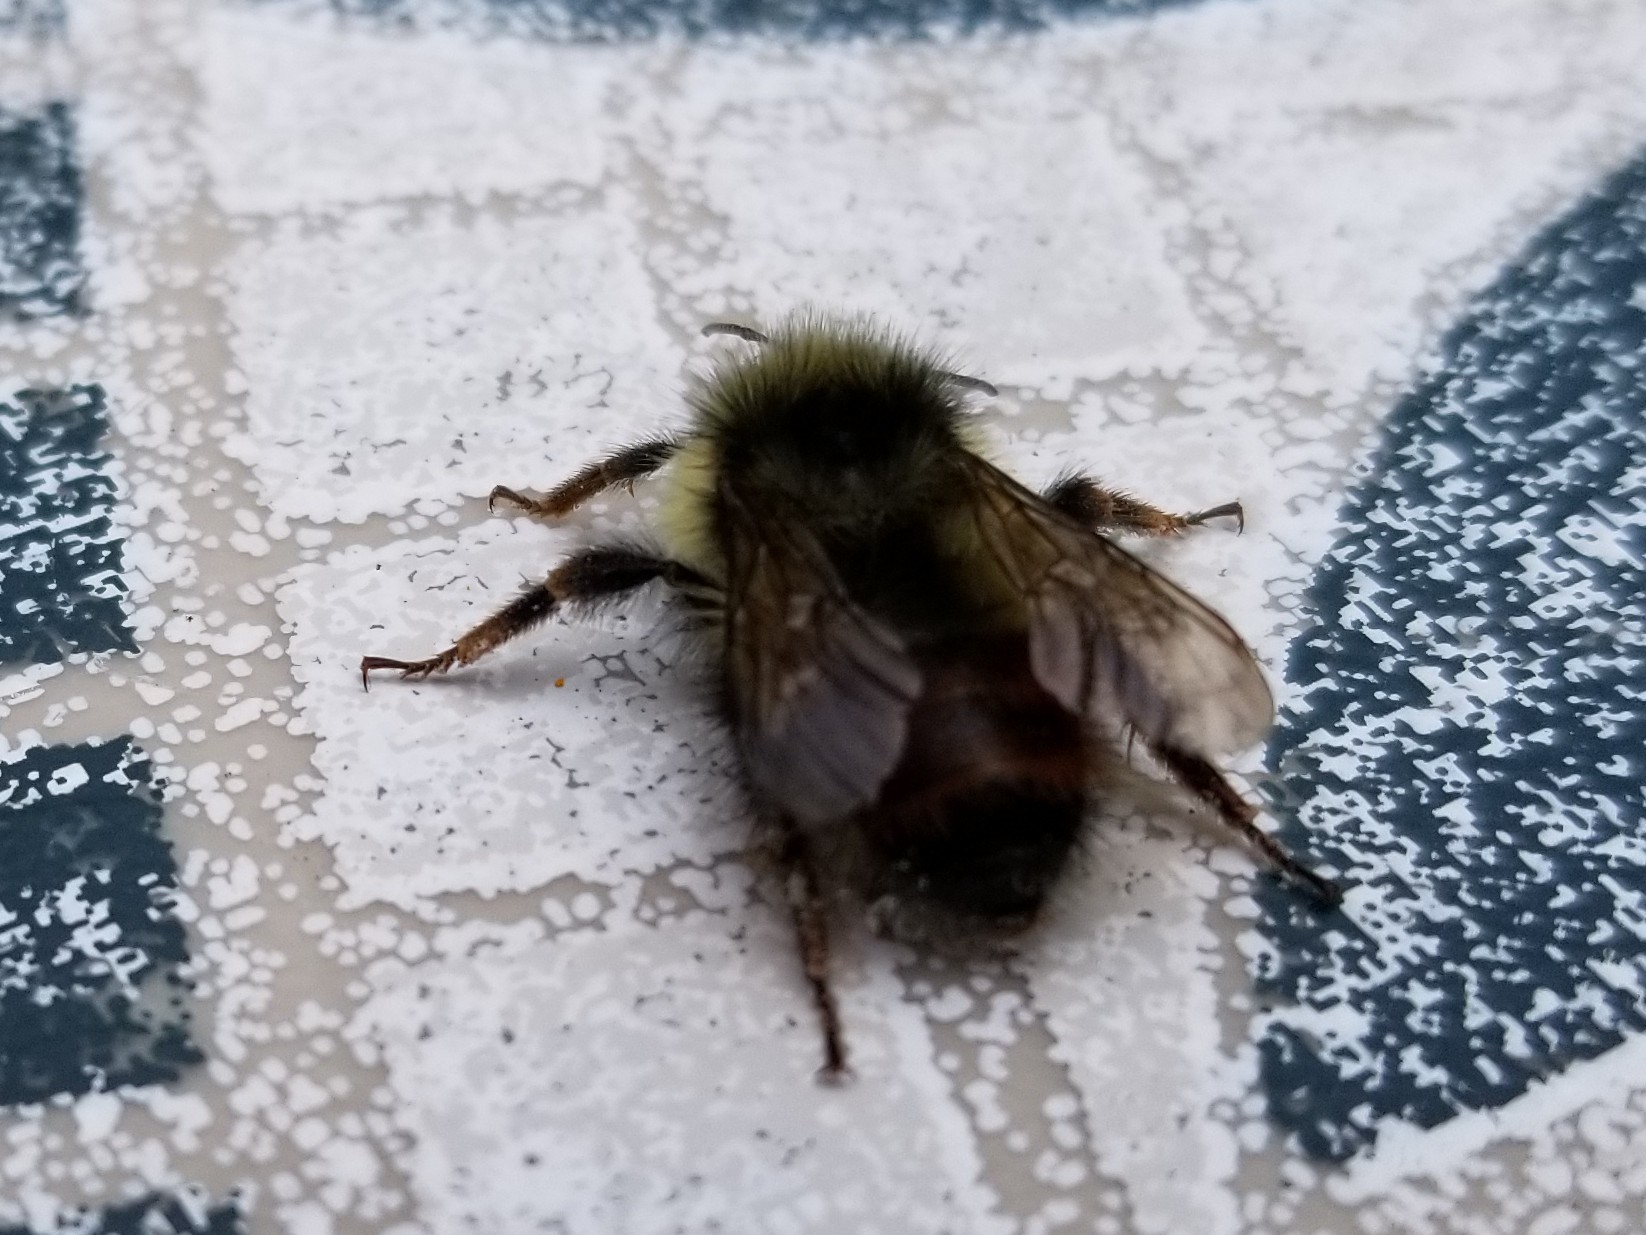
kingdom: Animalia
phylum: Arthropoda
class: Insecta
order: Hymenoptera
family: Apidae
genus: Bombus
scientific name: Bombus flavifrons
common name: Yellow head bumble bee
